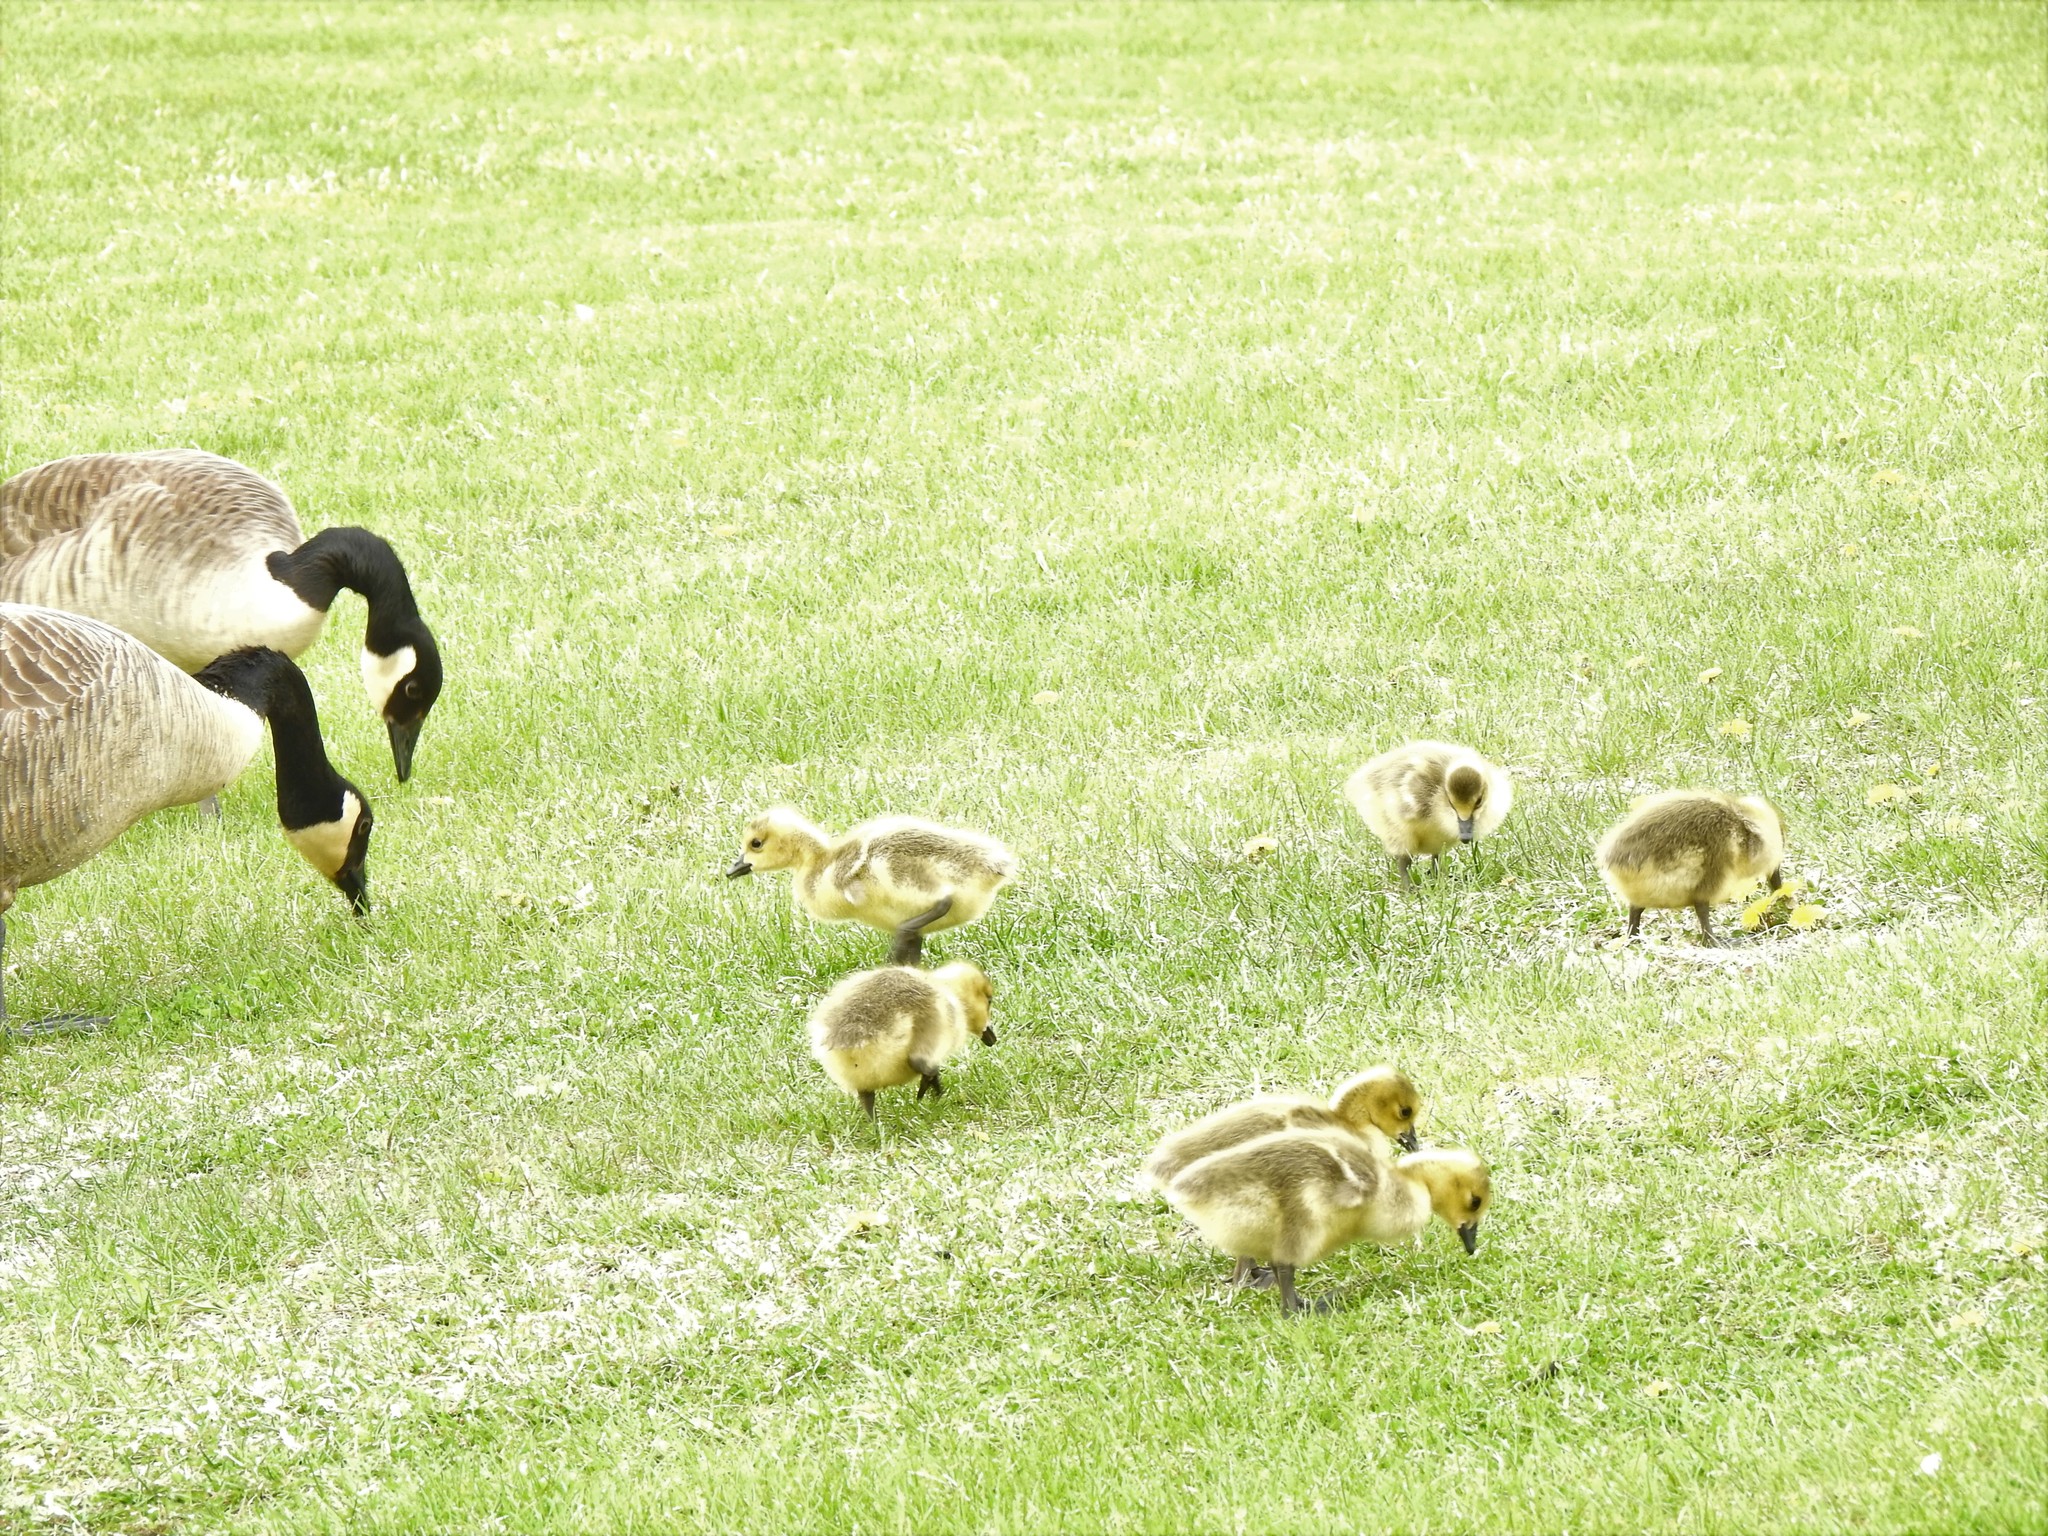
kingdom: Animalia
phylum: Chordata
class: Aves
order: Anseriformes
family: Anatidae
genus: Branta
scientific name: Branta canadensis
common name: Canada goose
